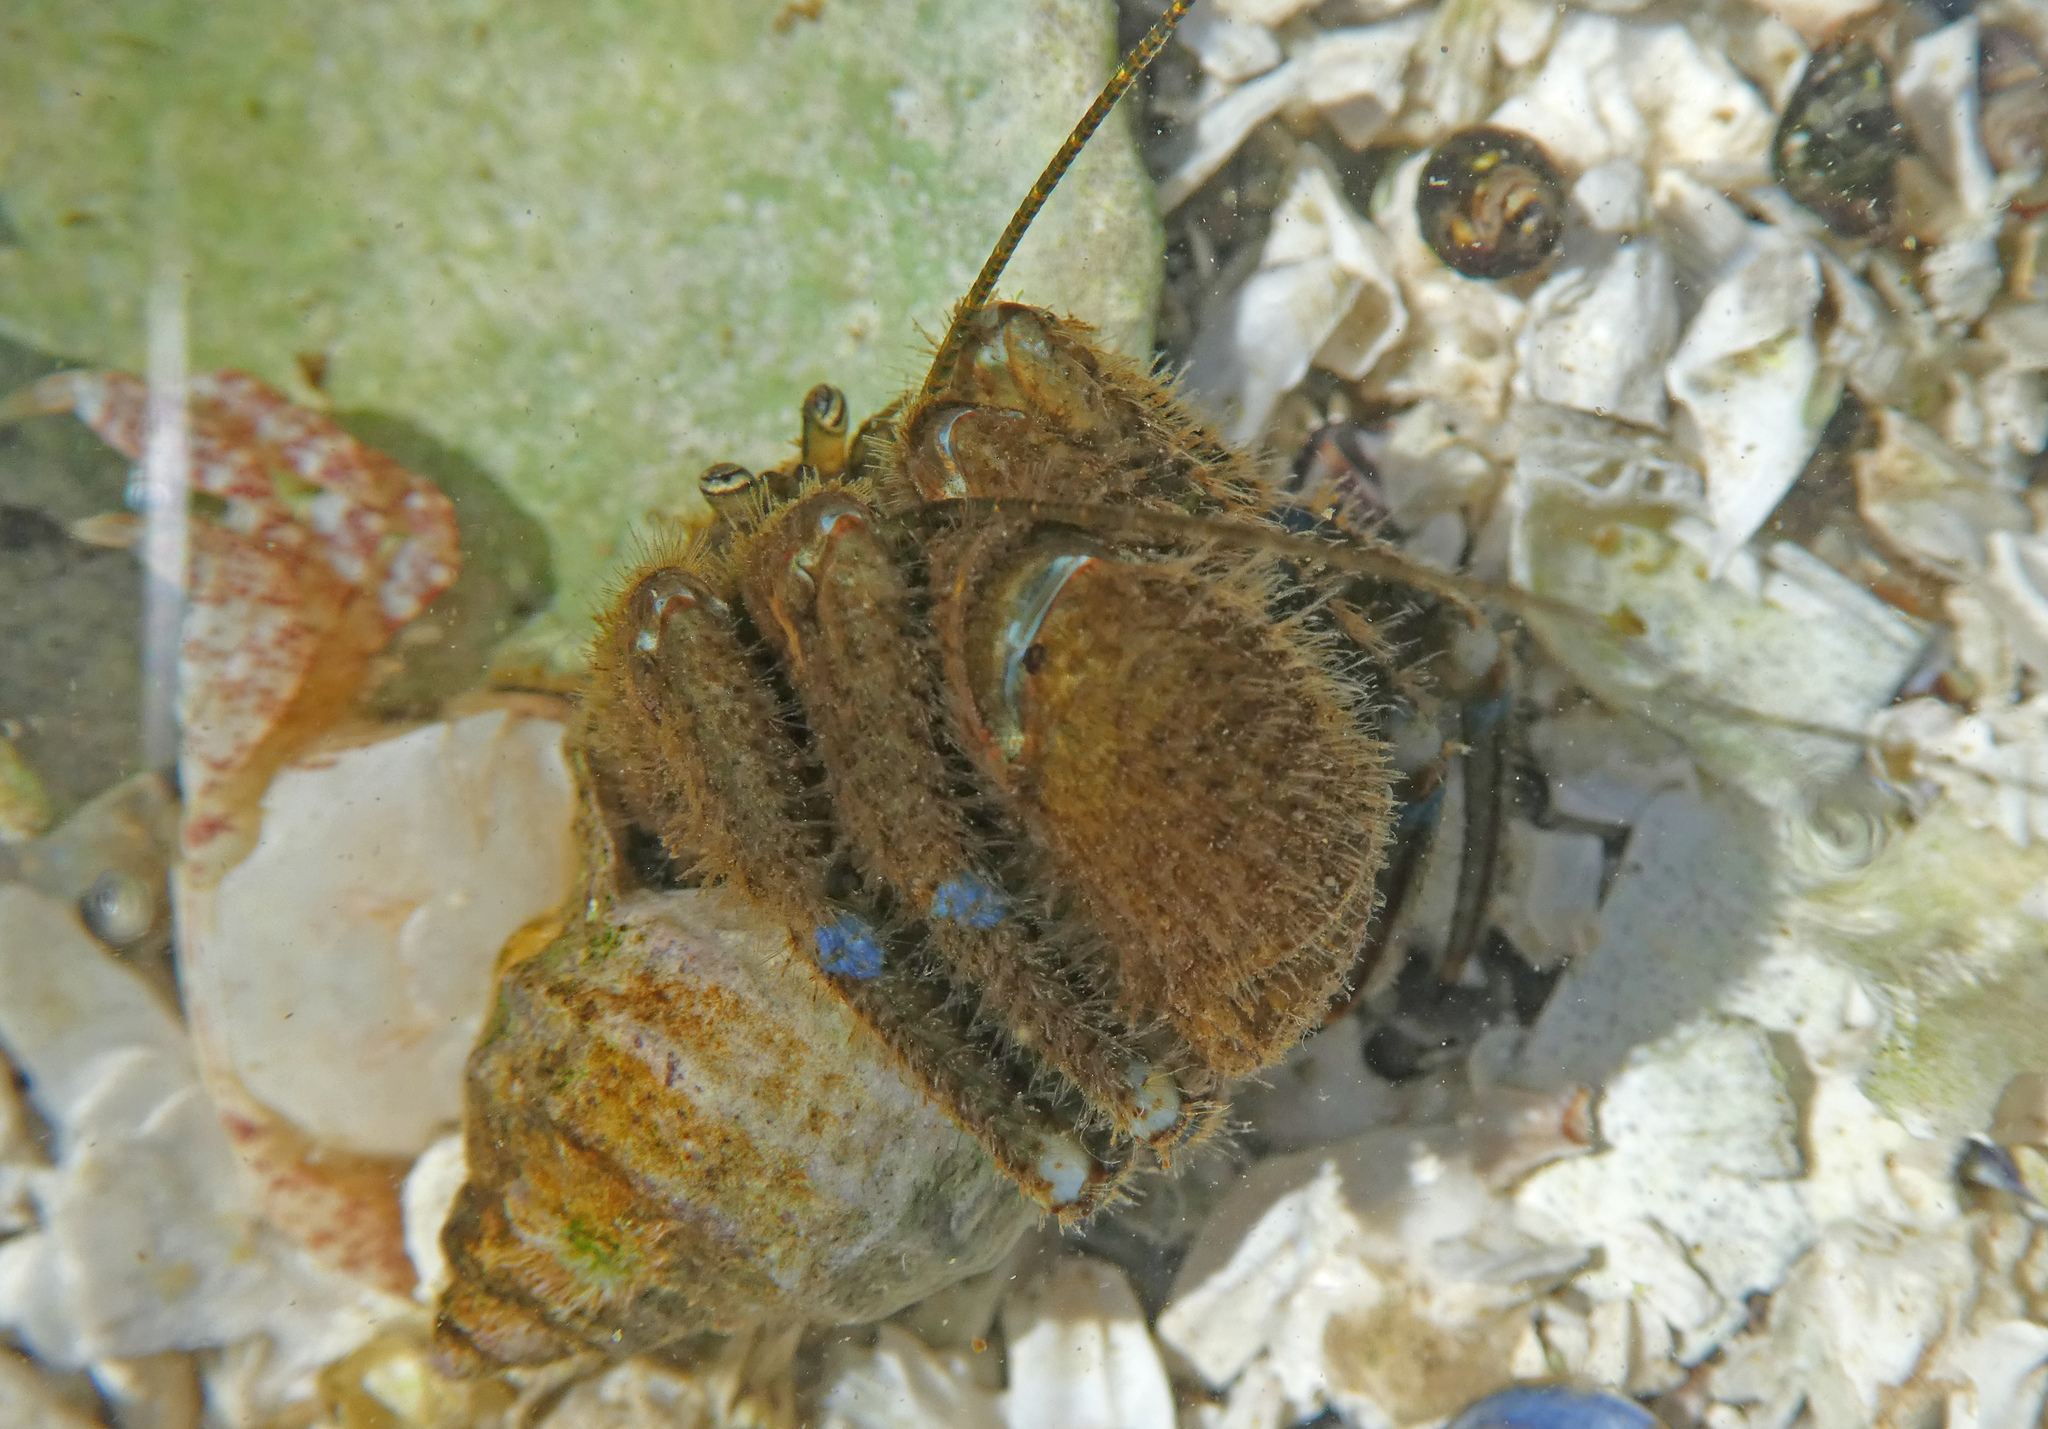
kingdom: Animalia
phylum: Arthropoda
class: Malacostraca
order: Decapoda
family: Paguridae
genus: Pagurus
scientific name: Pagurus hirsutiusculus
